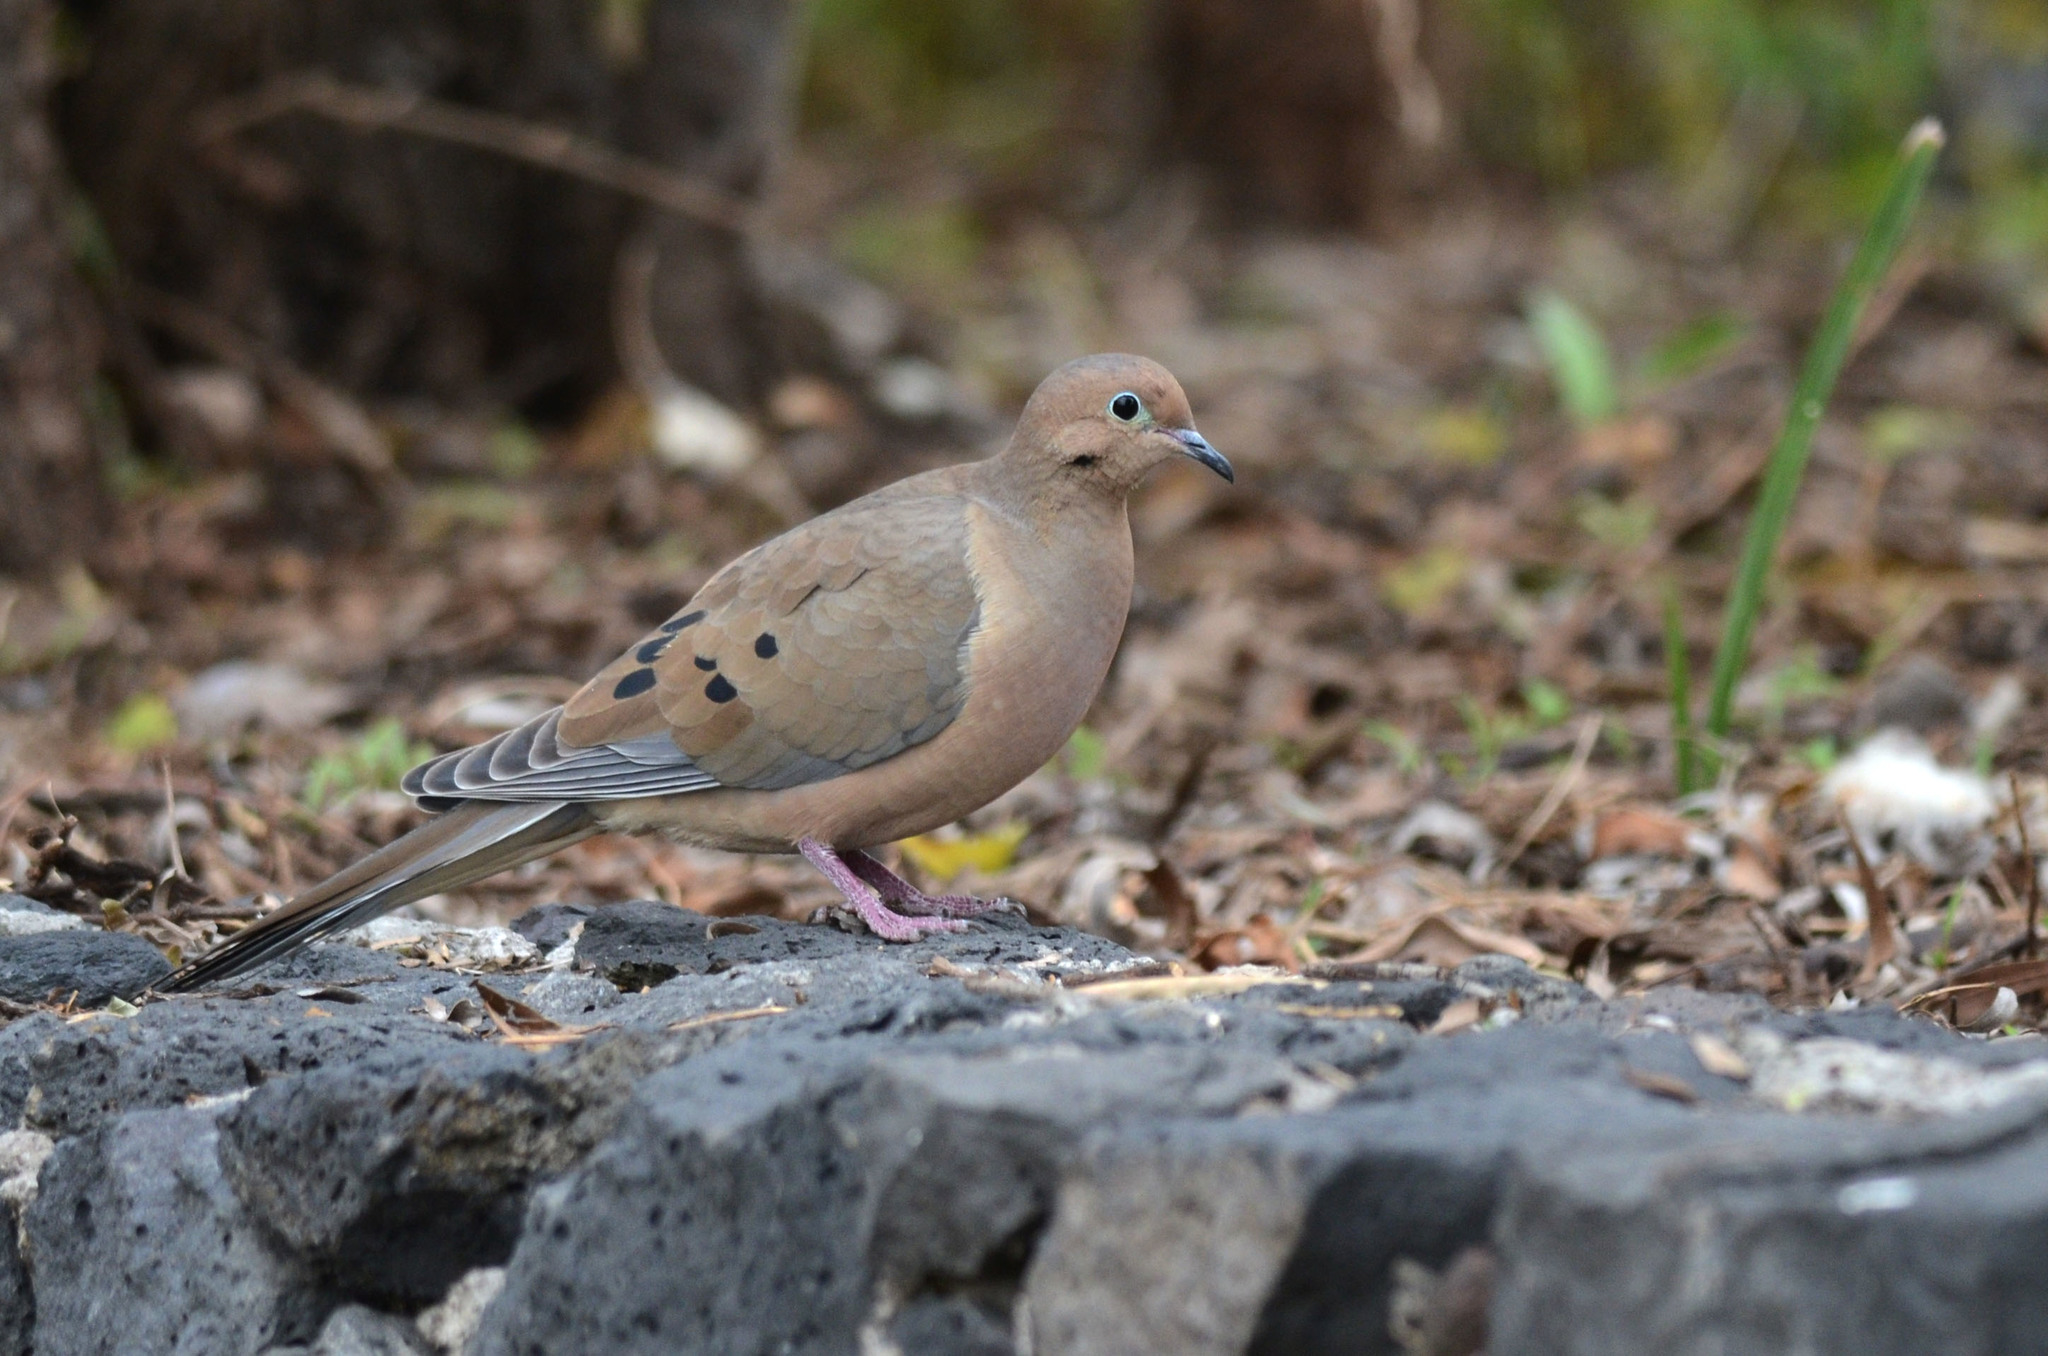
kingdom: Animalia
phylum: Chordata
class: Aves
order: Columbiformes
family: Columbidae
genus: Zenaida
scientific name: Zenaida macroura
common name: Mourning dove
